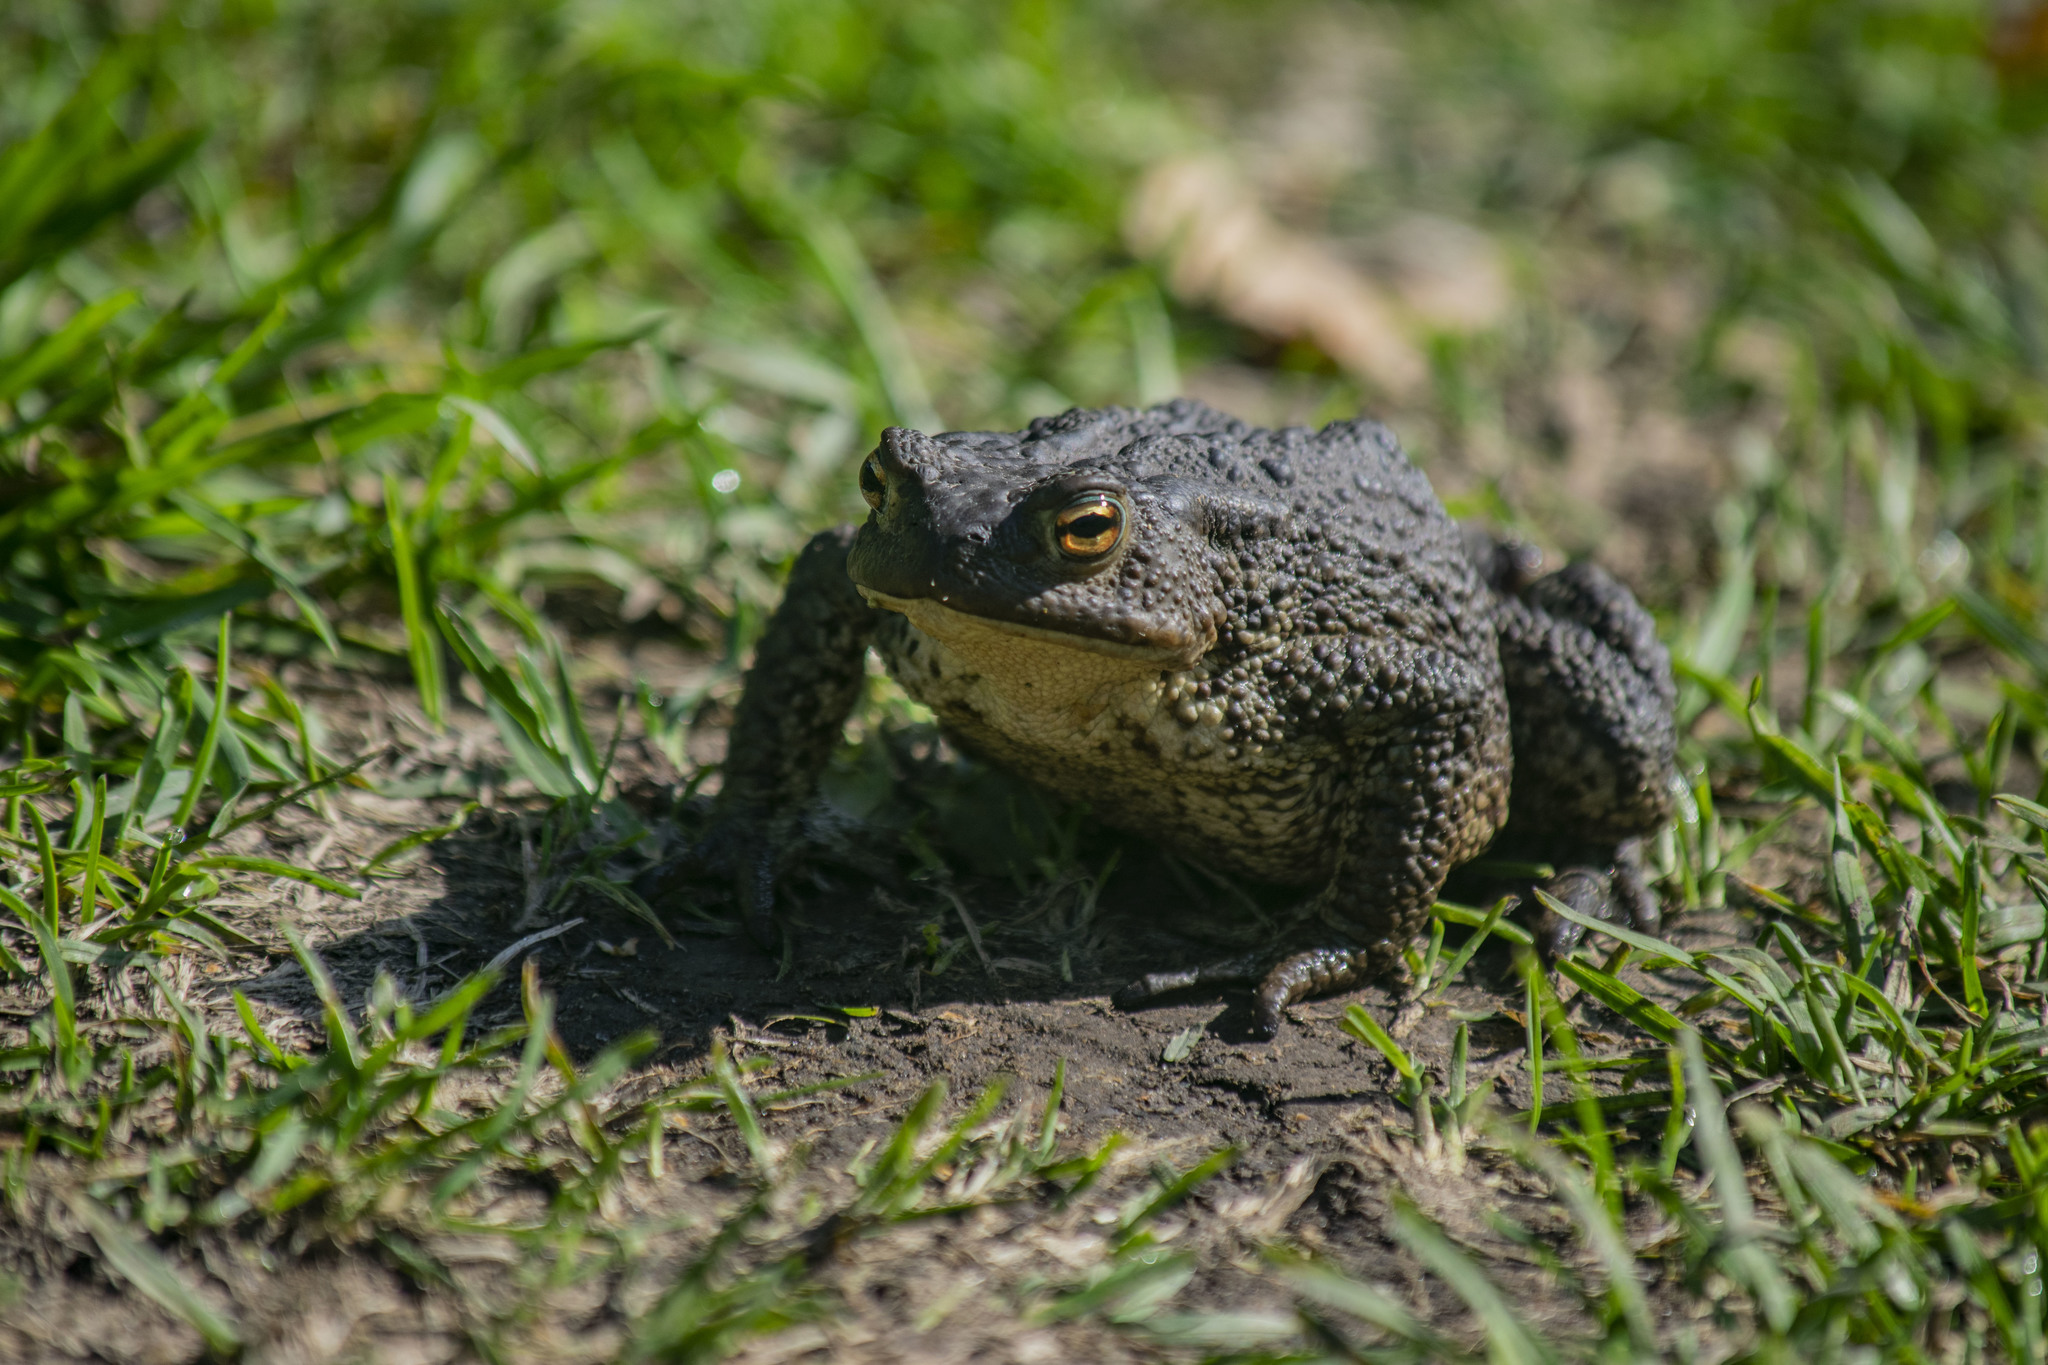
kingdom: Animalia
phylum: Chordata
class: Amphibia
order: Anura
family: Bufonidae
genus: Bufo
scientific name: Bufo bufo
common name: Common toad
